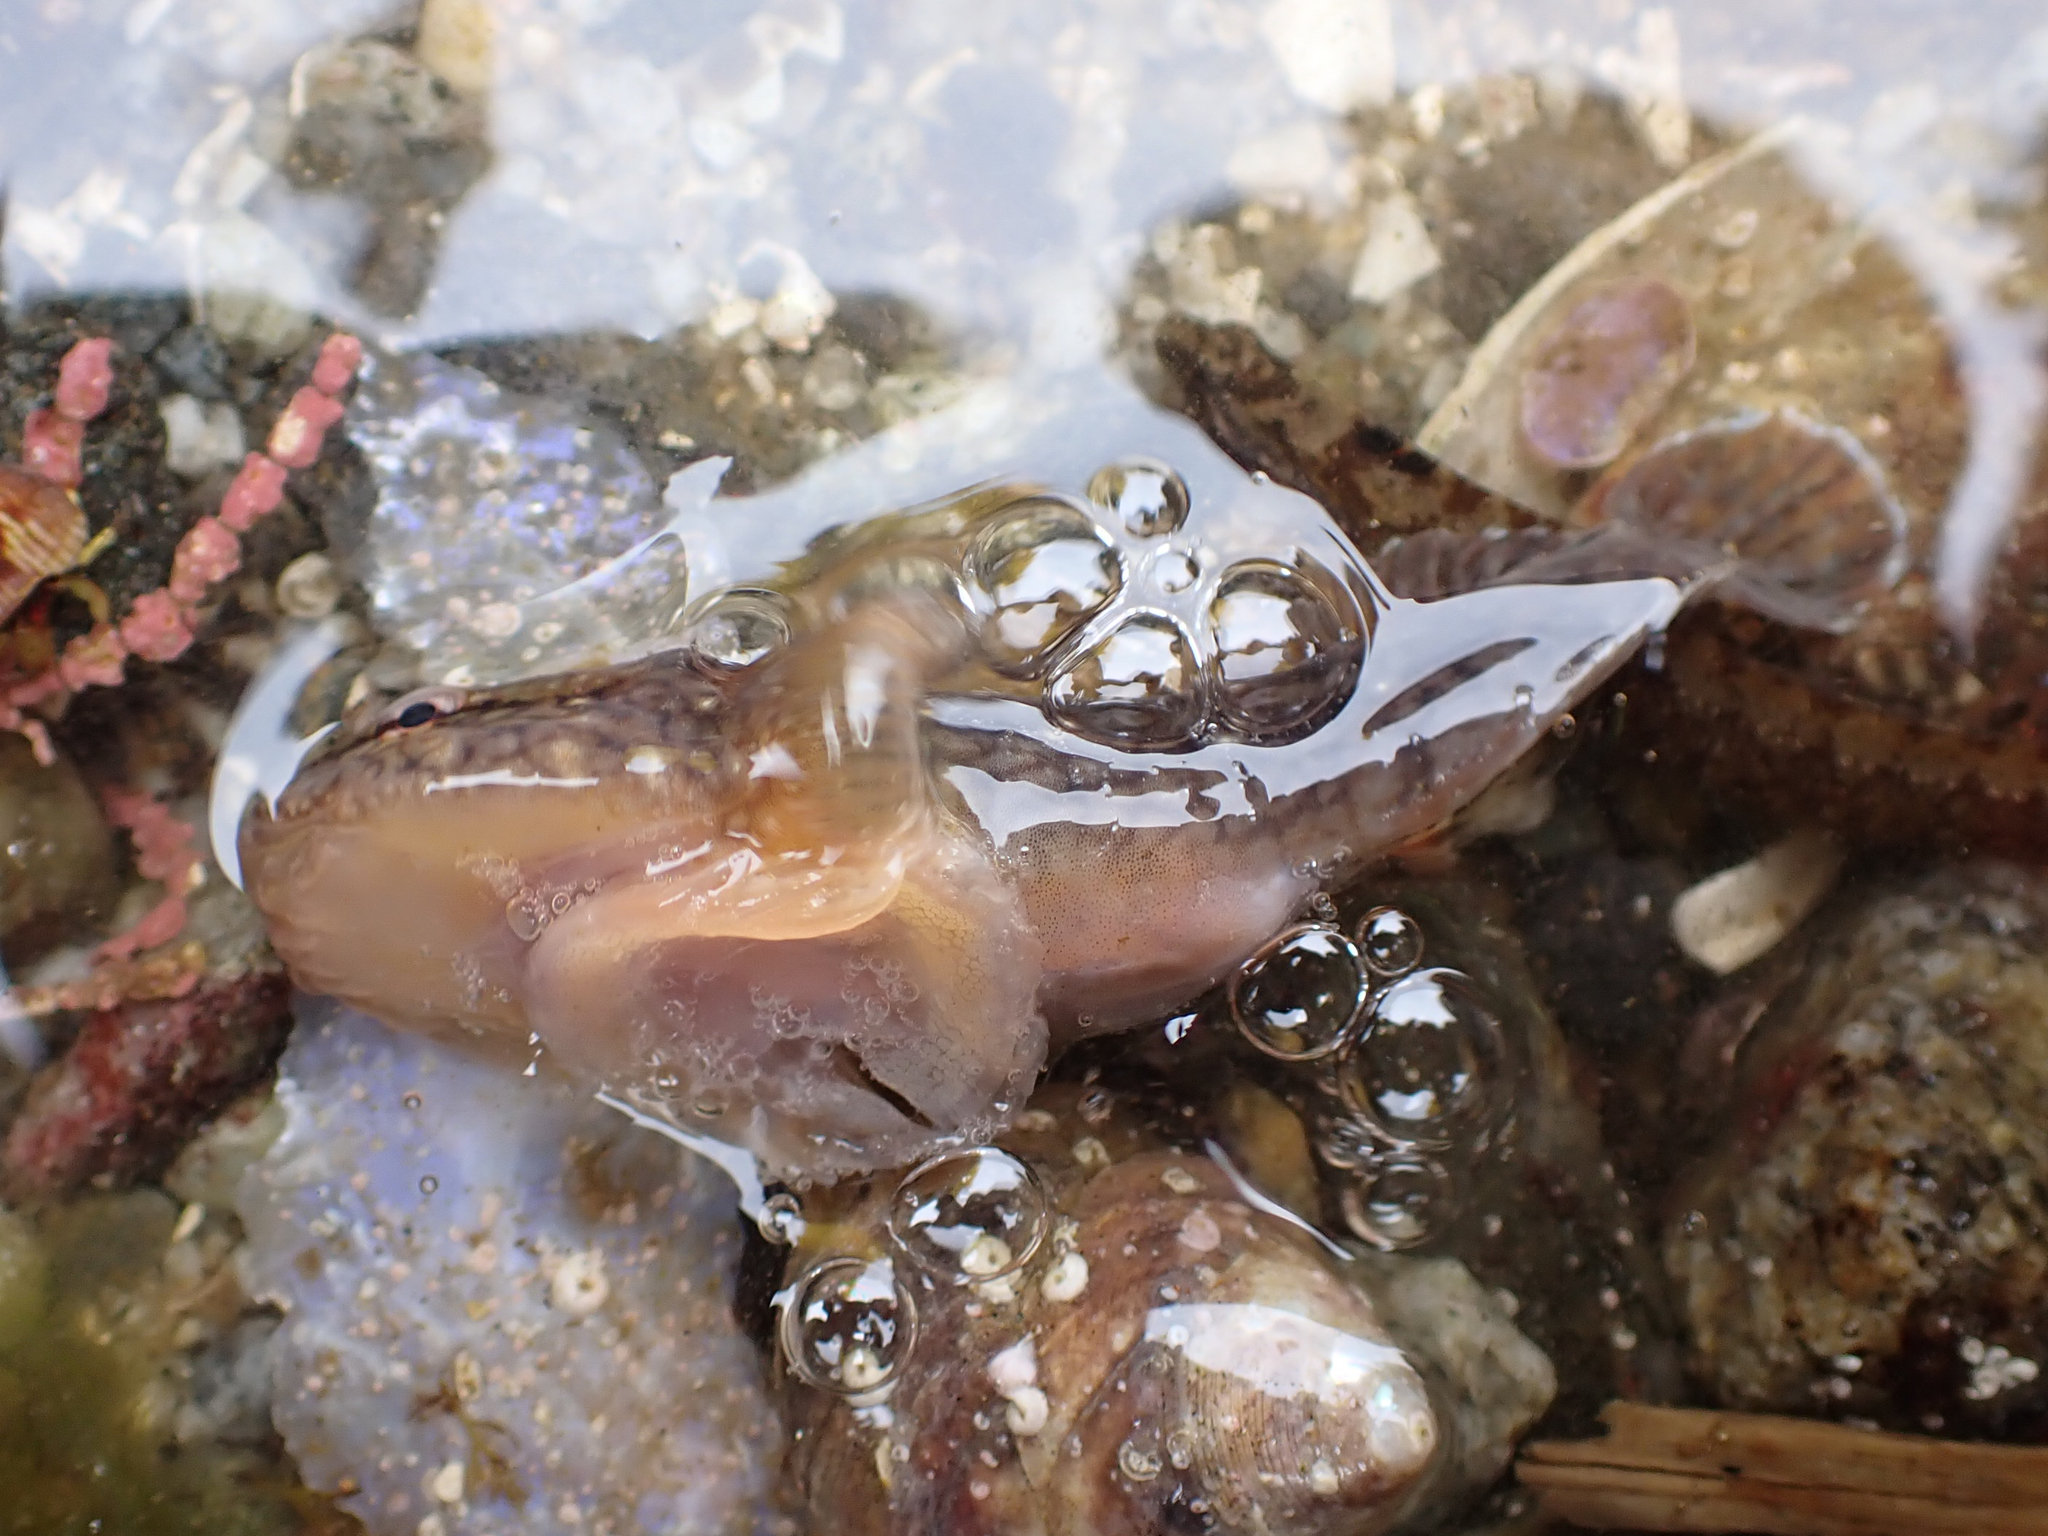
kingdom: Animalia
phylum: Chordata
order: Gobiesociformes
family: Gobiesocidae
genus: Gobiesox
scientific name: Gobiesox maeandricus
